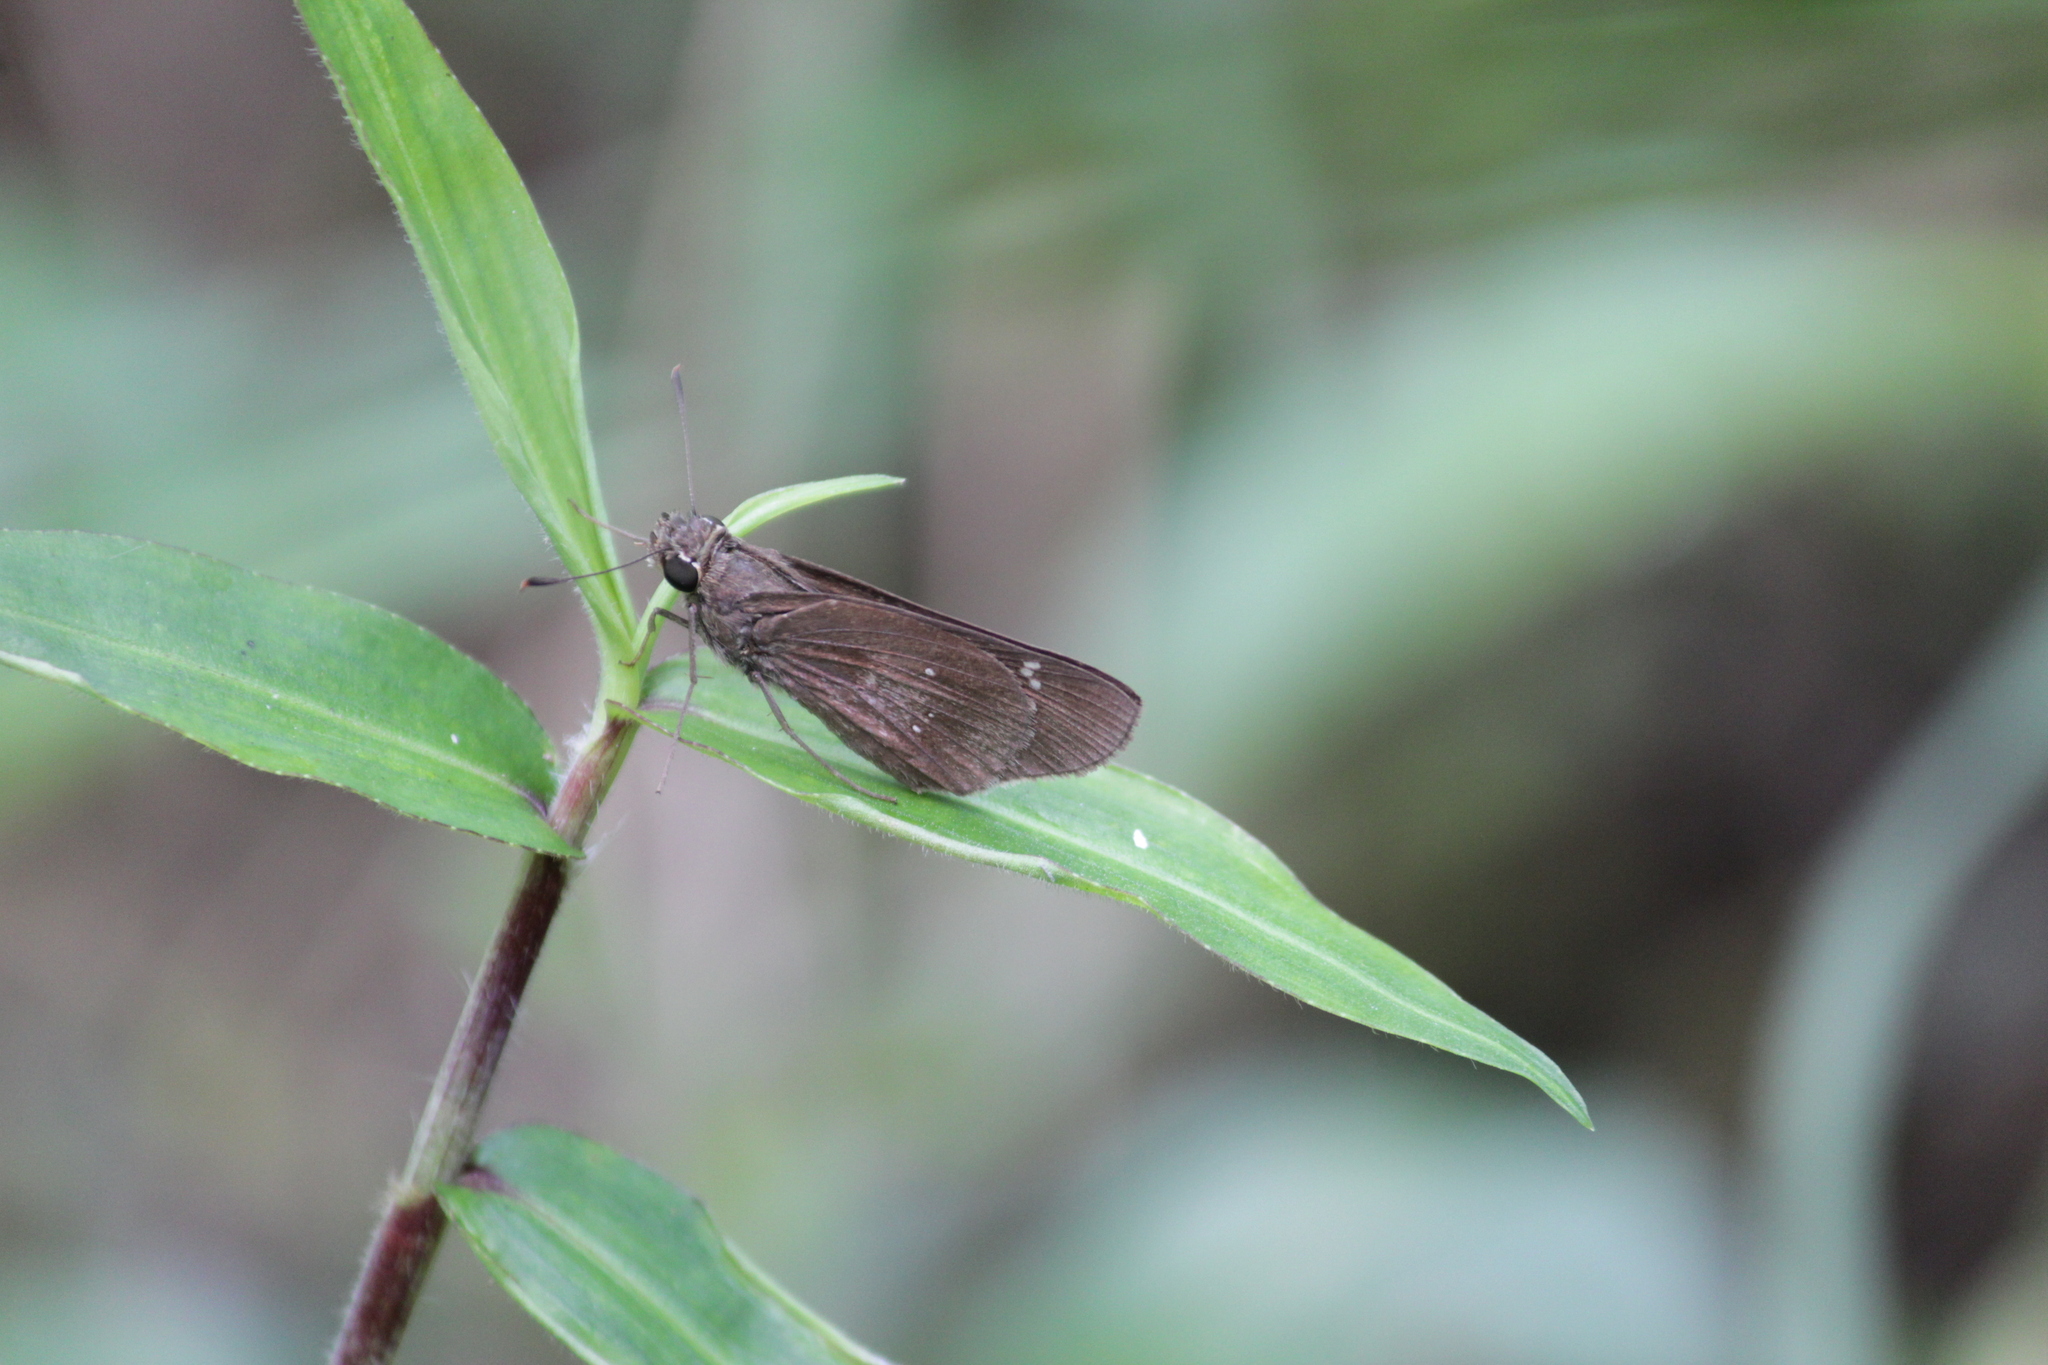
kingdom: Animalia
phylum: Arthropoda
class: Insecta
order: Lepidoptera
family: Hesperiidae
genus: Baoris
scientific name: Baoris fatuellus
